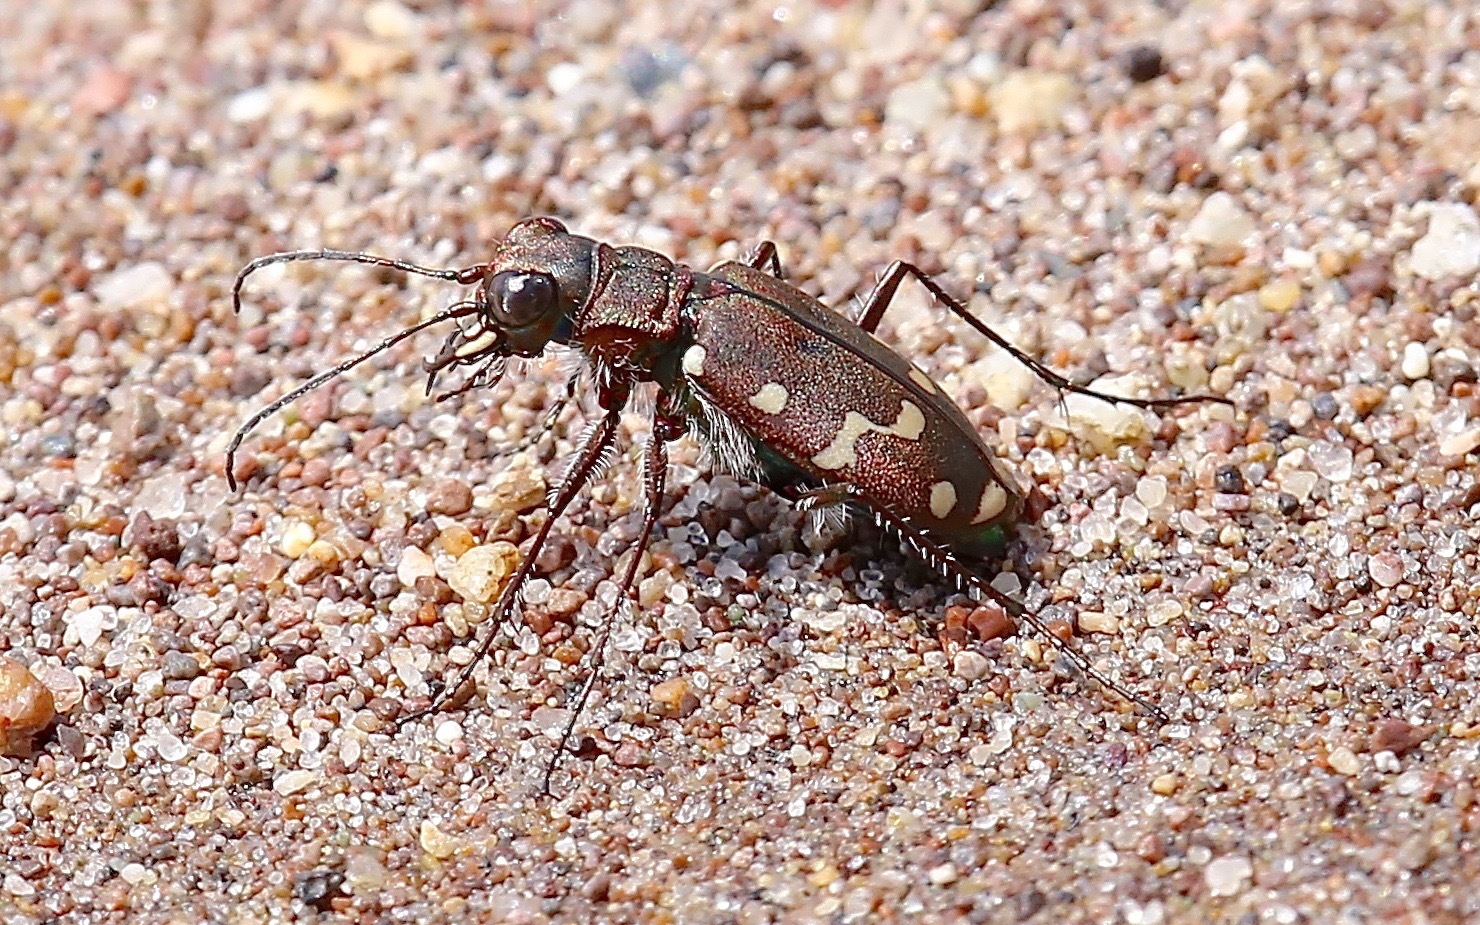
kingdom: Animalia
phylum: Arthropoda
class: Insecta
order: Coleoptera
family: Carabidae
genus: Cicindela
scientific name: Cicindela oregona
